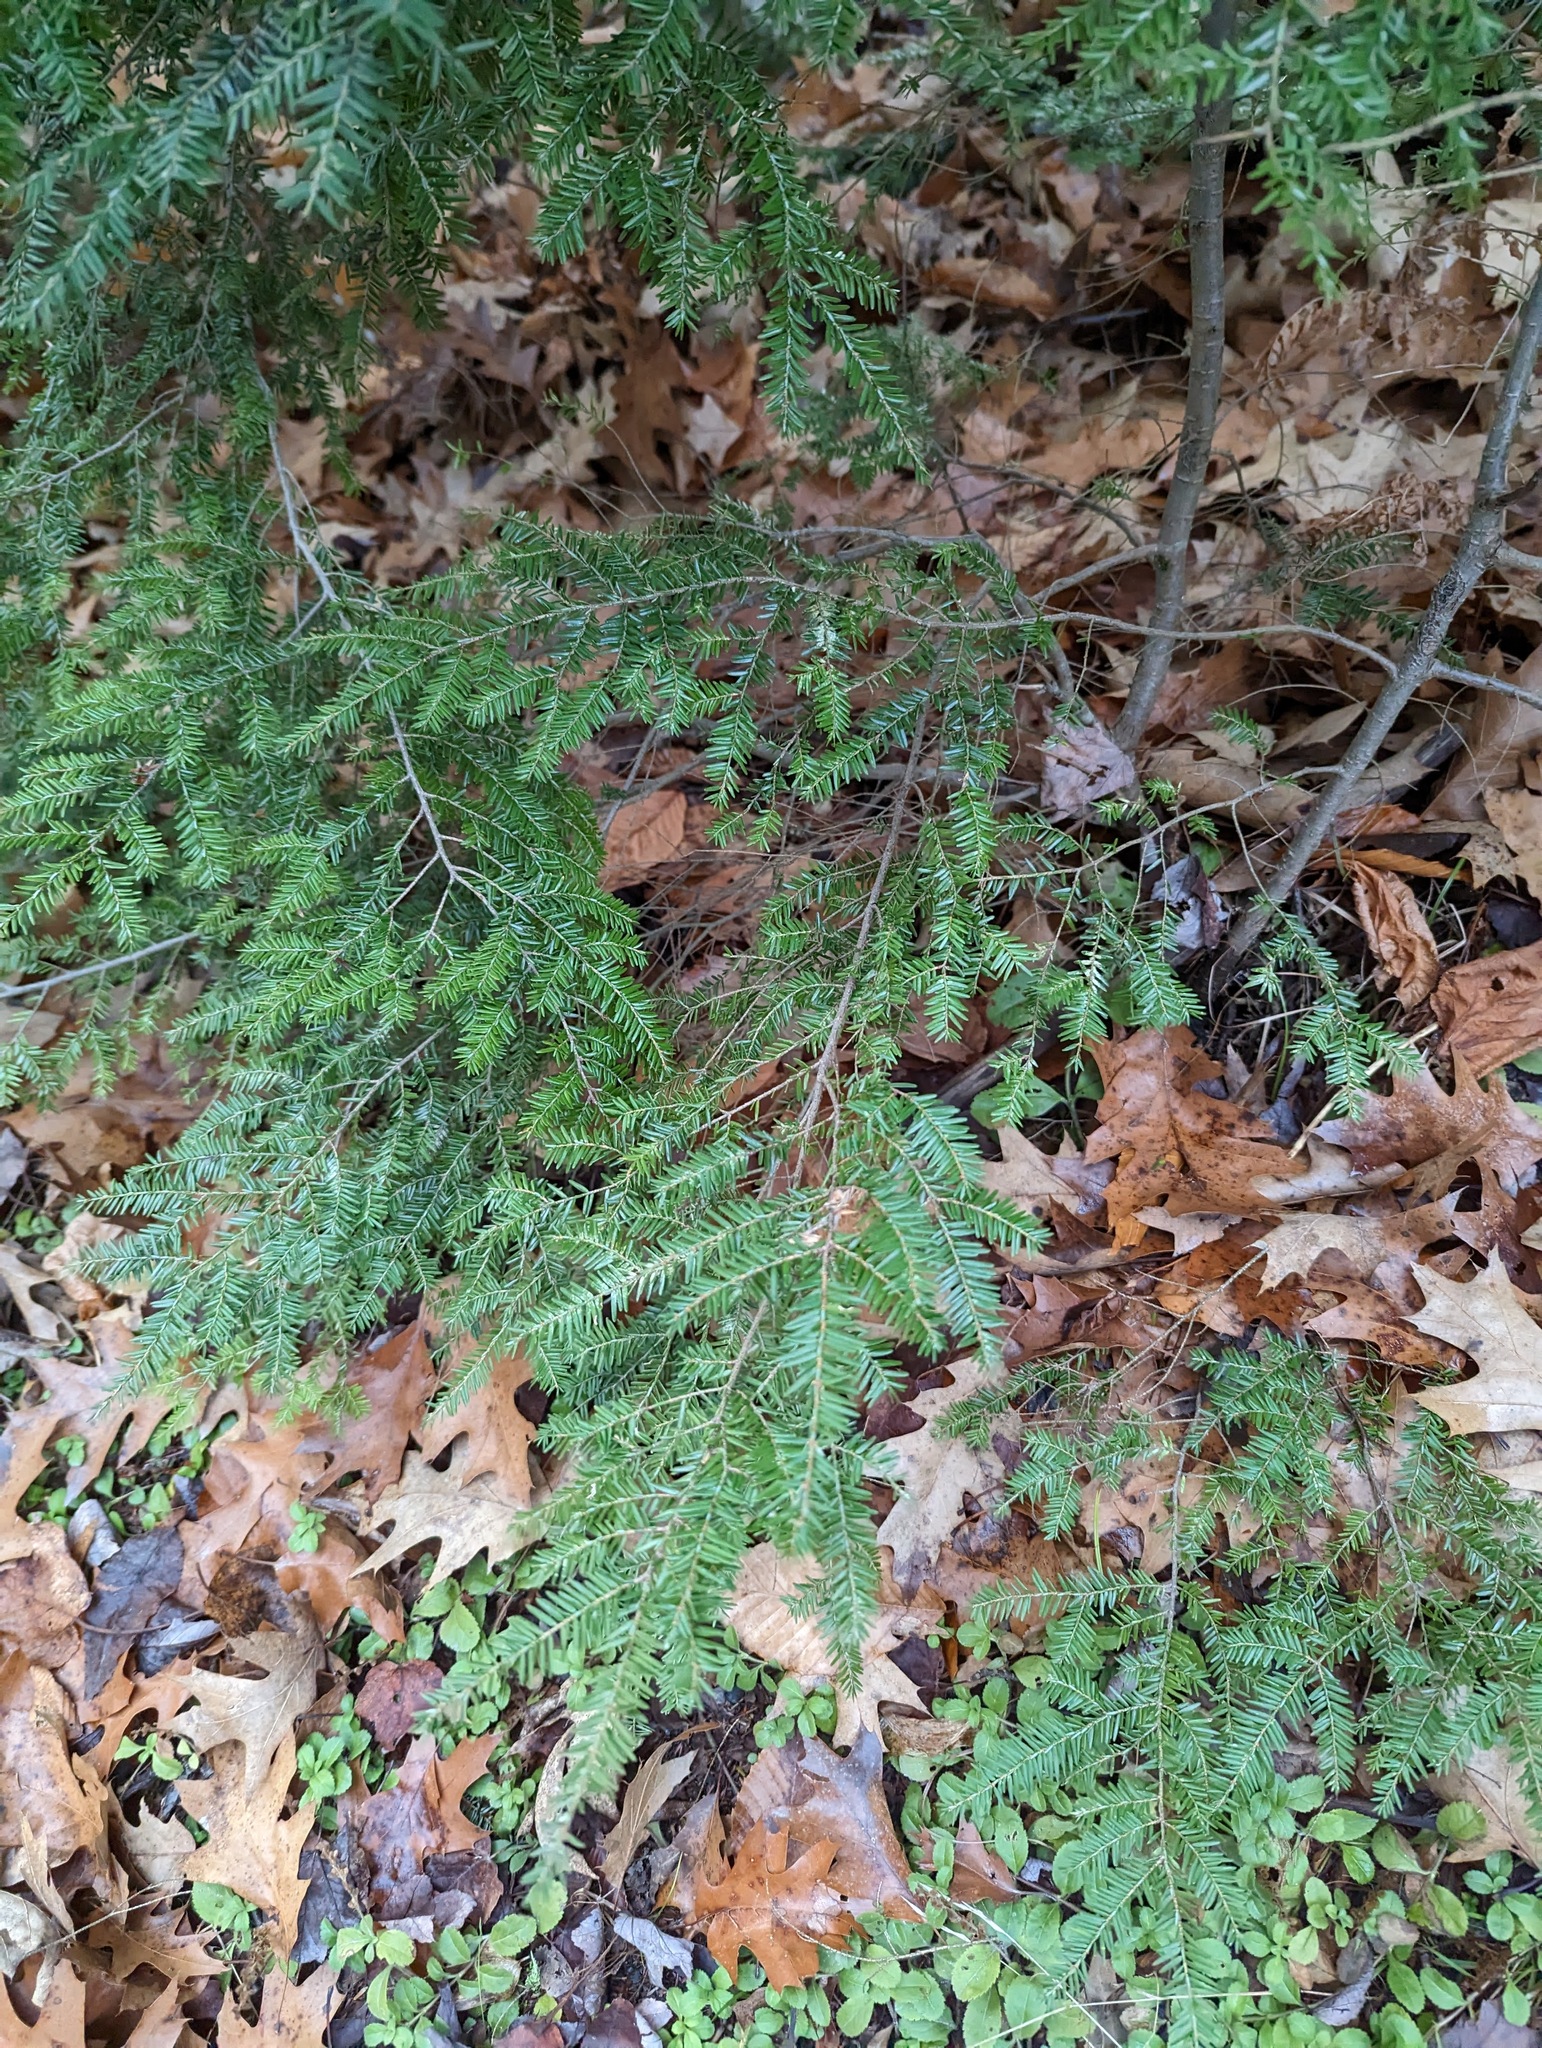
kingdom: Plantae
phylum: Tracheophyta
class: Pinopsida
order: Pinales
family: Pinaceae
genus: Tsuga
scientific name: Tsuga canadensis
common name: Eastern hemlock
